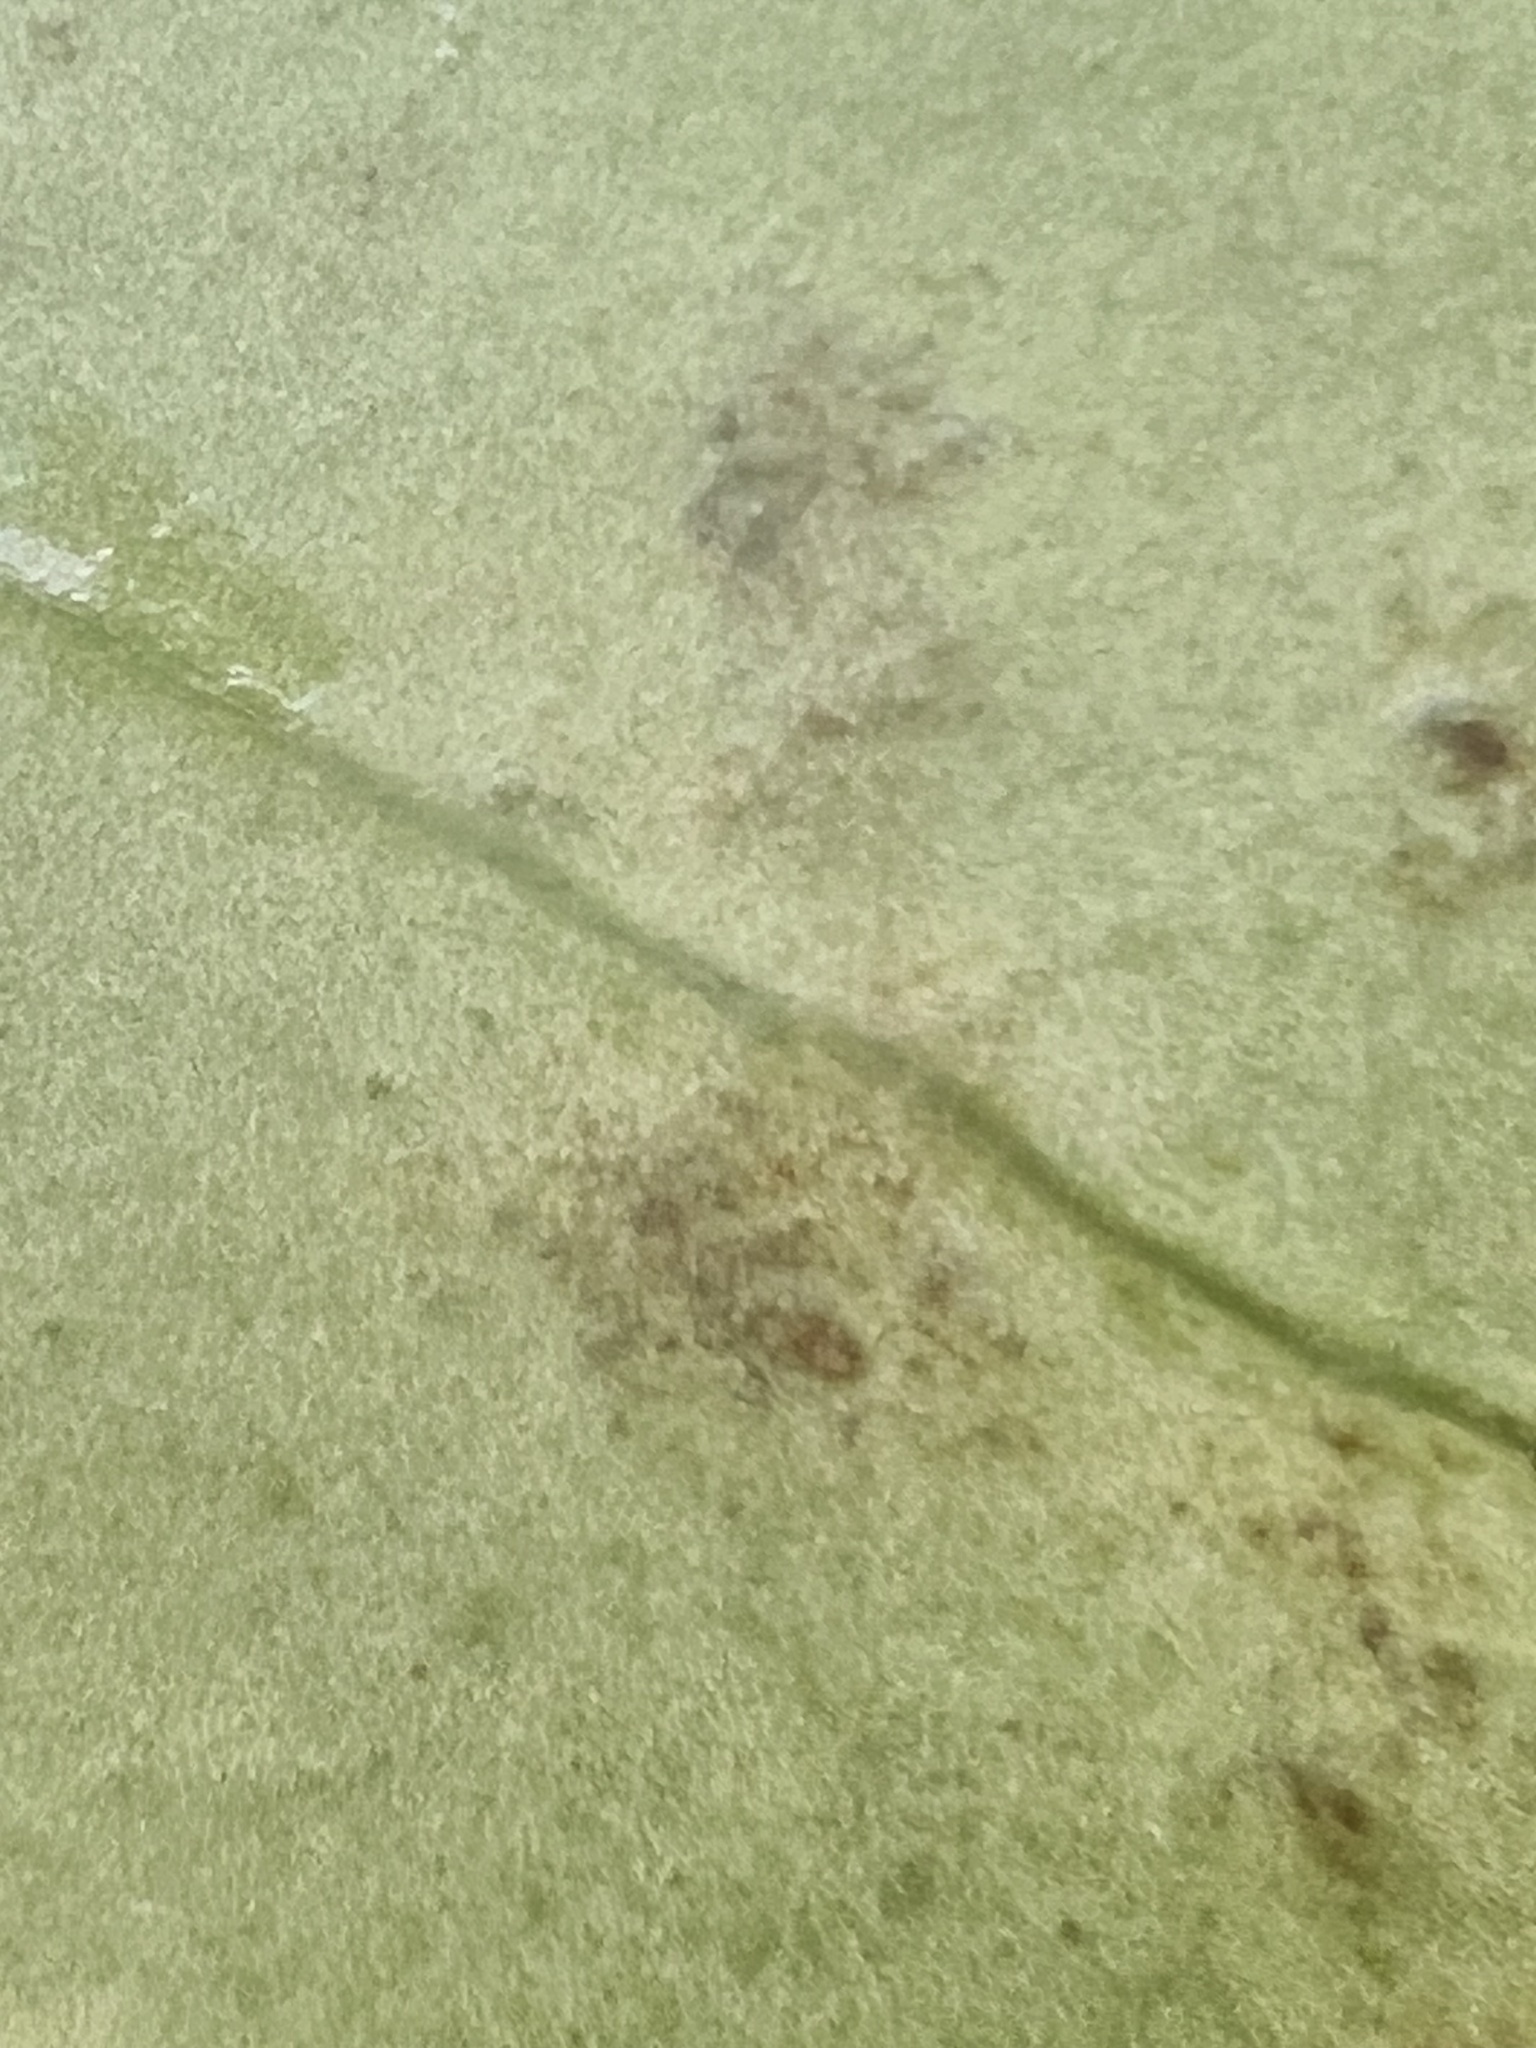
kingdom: Fungi
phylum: Ascomycota
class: Dothideomycetes
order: Asterinales
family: Asterinaceae
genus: Placosoma
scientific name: Placosoma nothopanacis
